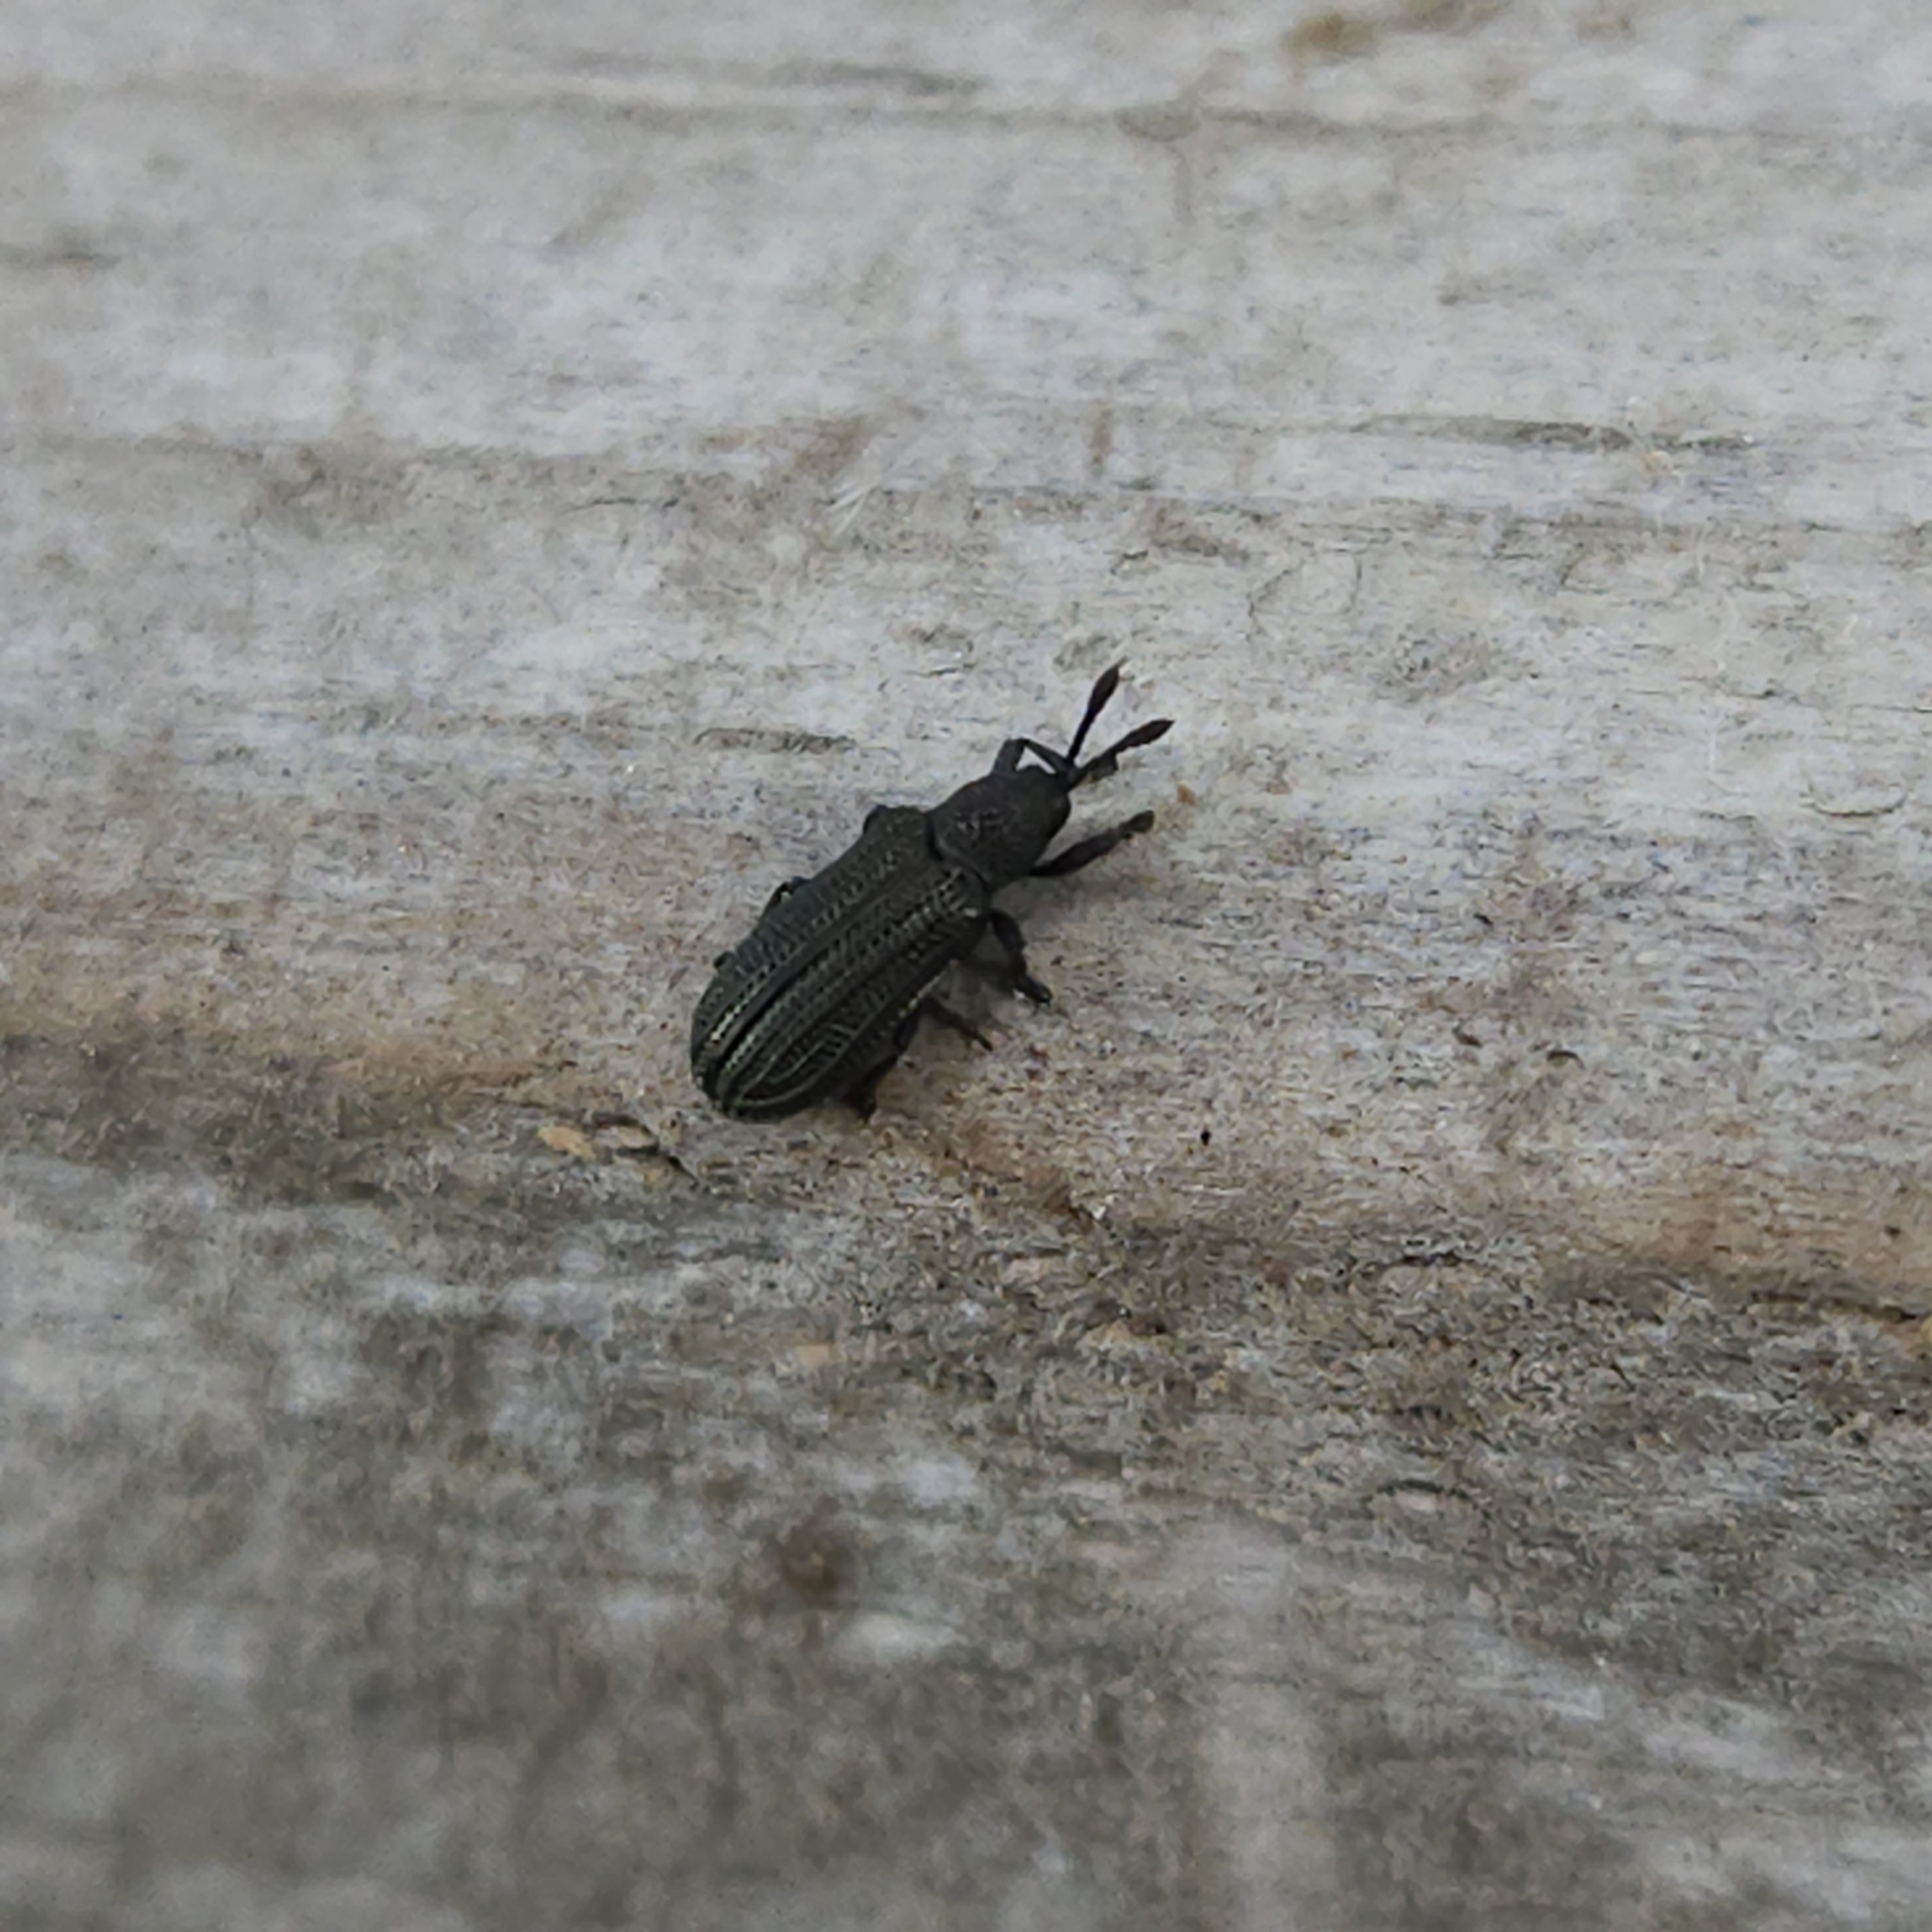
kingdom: Animalia
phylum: Arthropoda
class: Insecta
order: Coleoptera
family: Chrysomelidae
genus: Anisostena
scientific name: Anisostena nigrita
